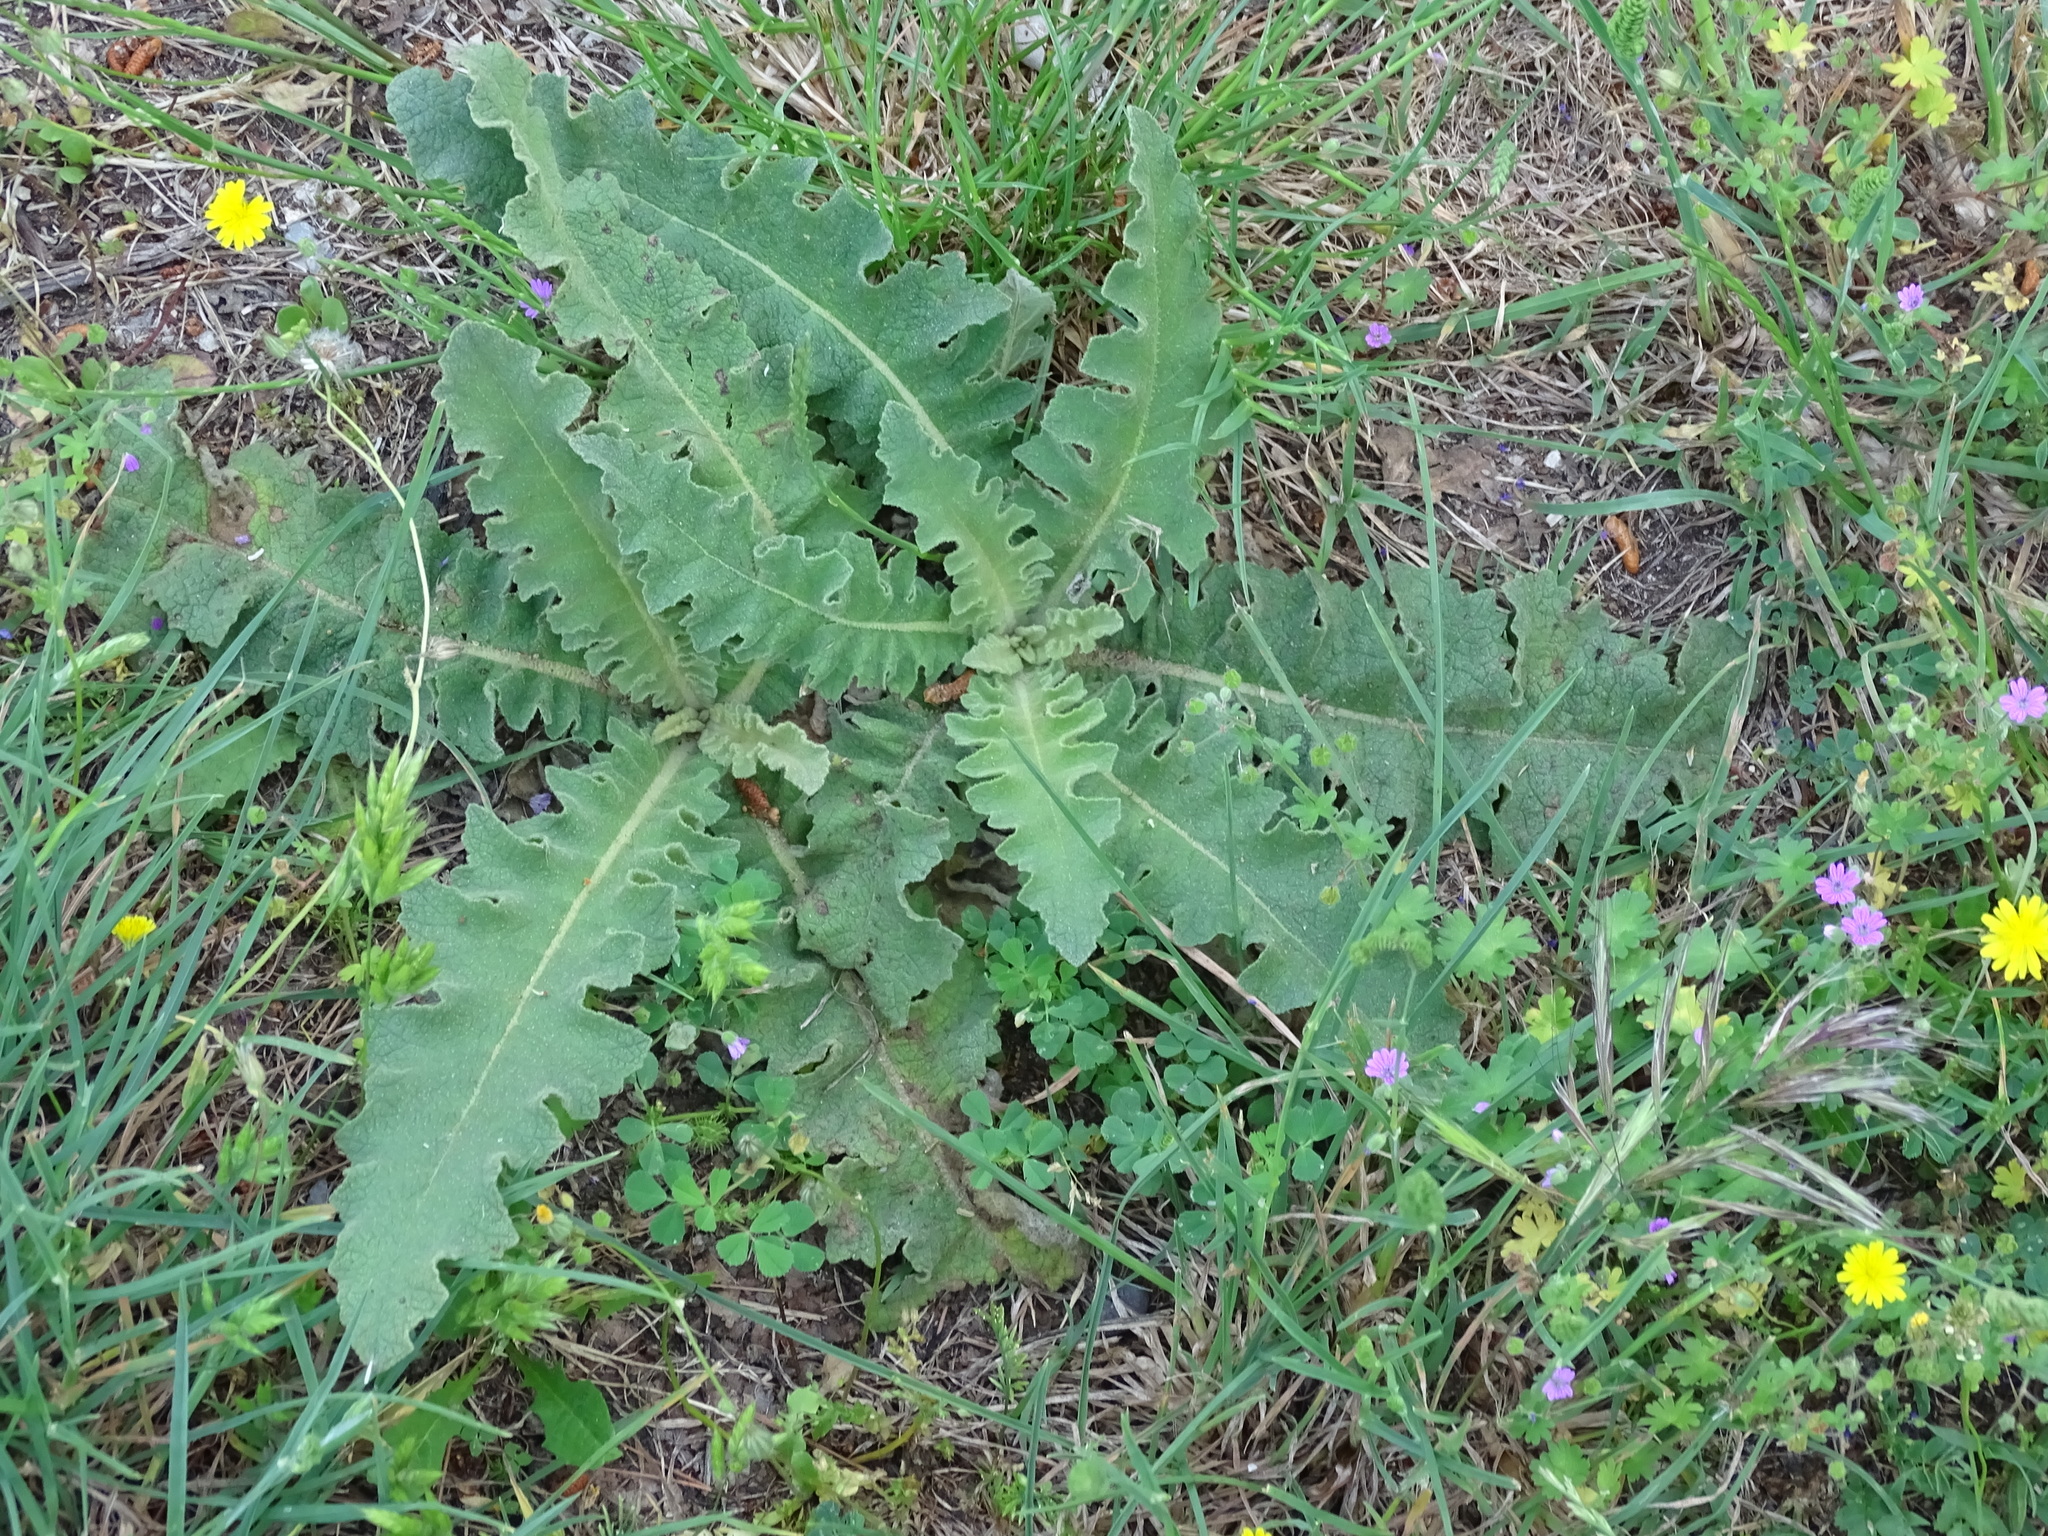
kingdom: Plantae
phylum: Tracheophyta
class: Magnoliopsida
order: Lamiales
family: Scrophulariaceae
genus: Verbascum
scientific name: Verbascum sinuatum
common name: Wavyleaf mullein
